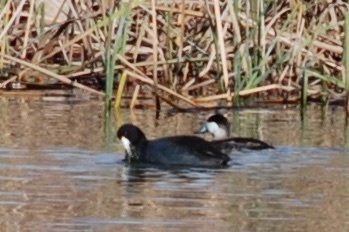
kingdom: Animalia
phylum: Chordata
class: Aves
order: Gruiformes
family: Rallidae
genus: Fulica
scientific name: Fulica americana
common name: American coot
